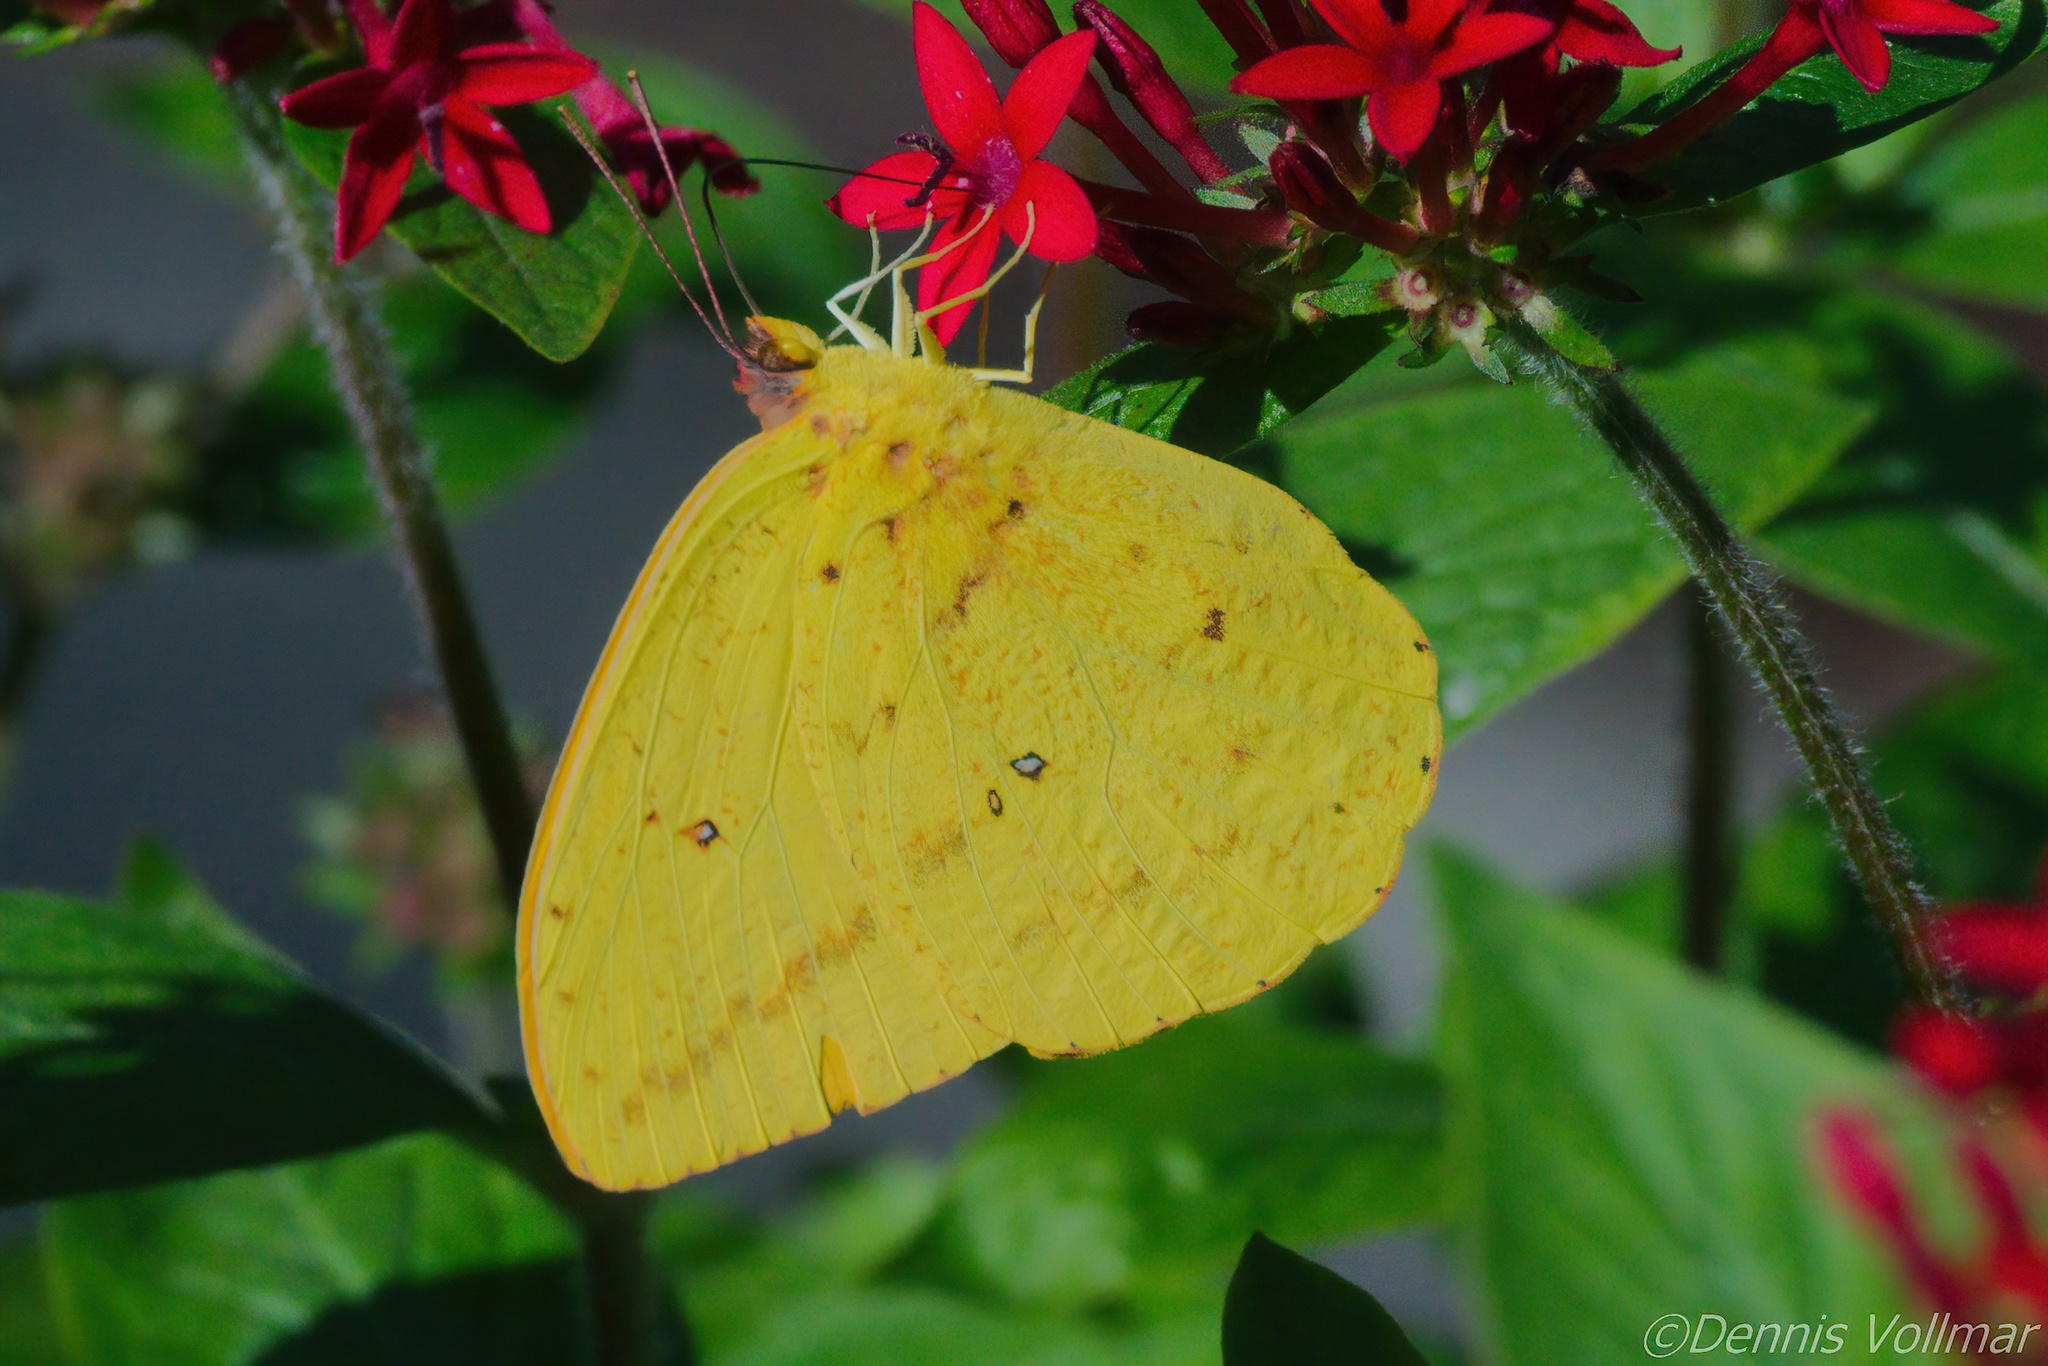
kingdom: Animalia
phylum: Arthropoda
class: Insecta
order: Lepidoptera
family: Pieridae
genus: Phoebis
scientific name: Phoebis agarithe
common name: Large orange sulphur
